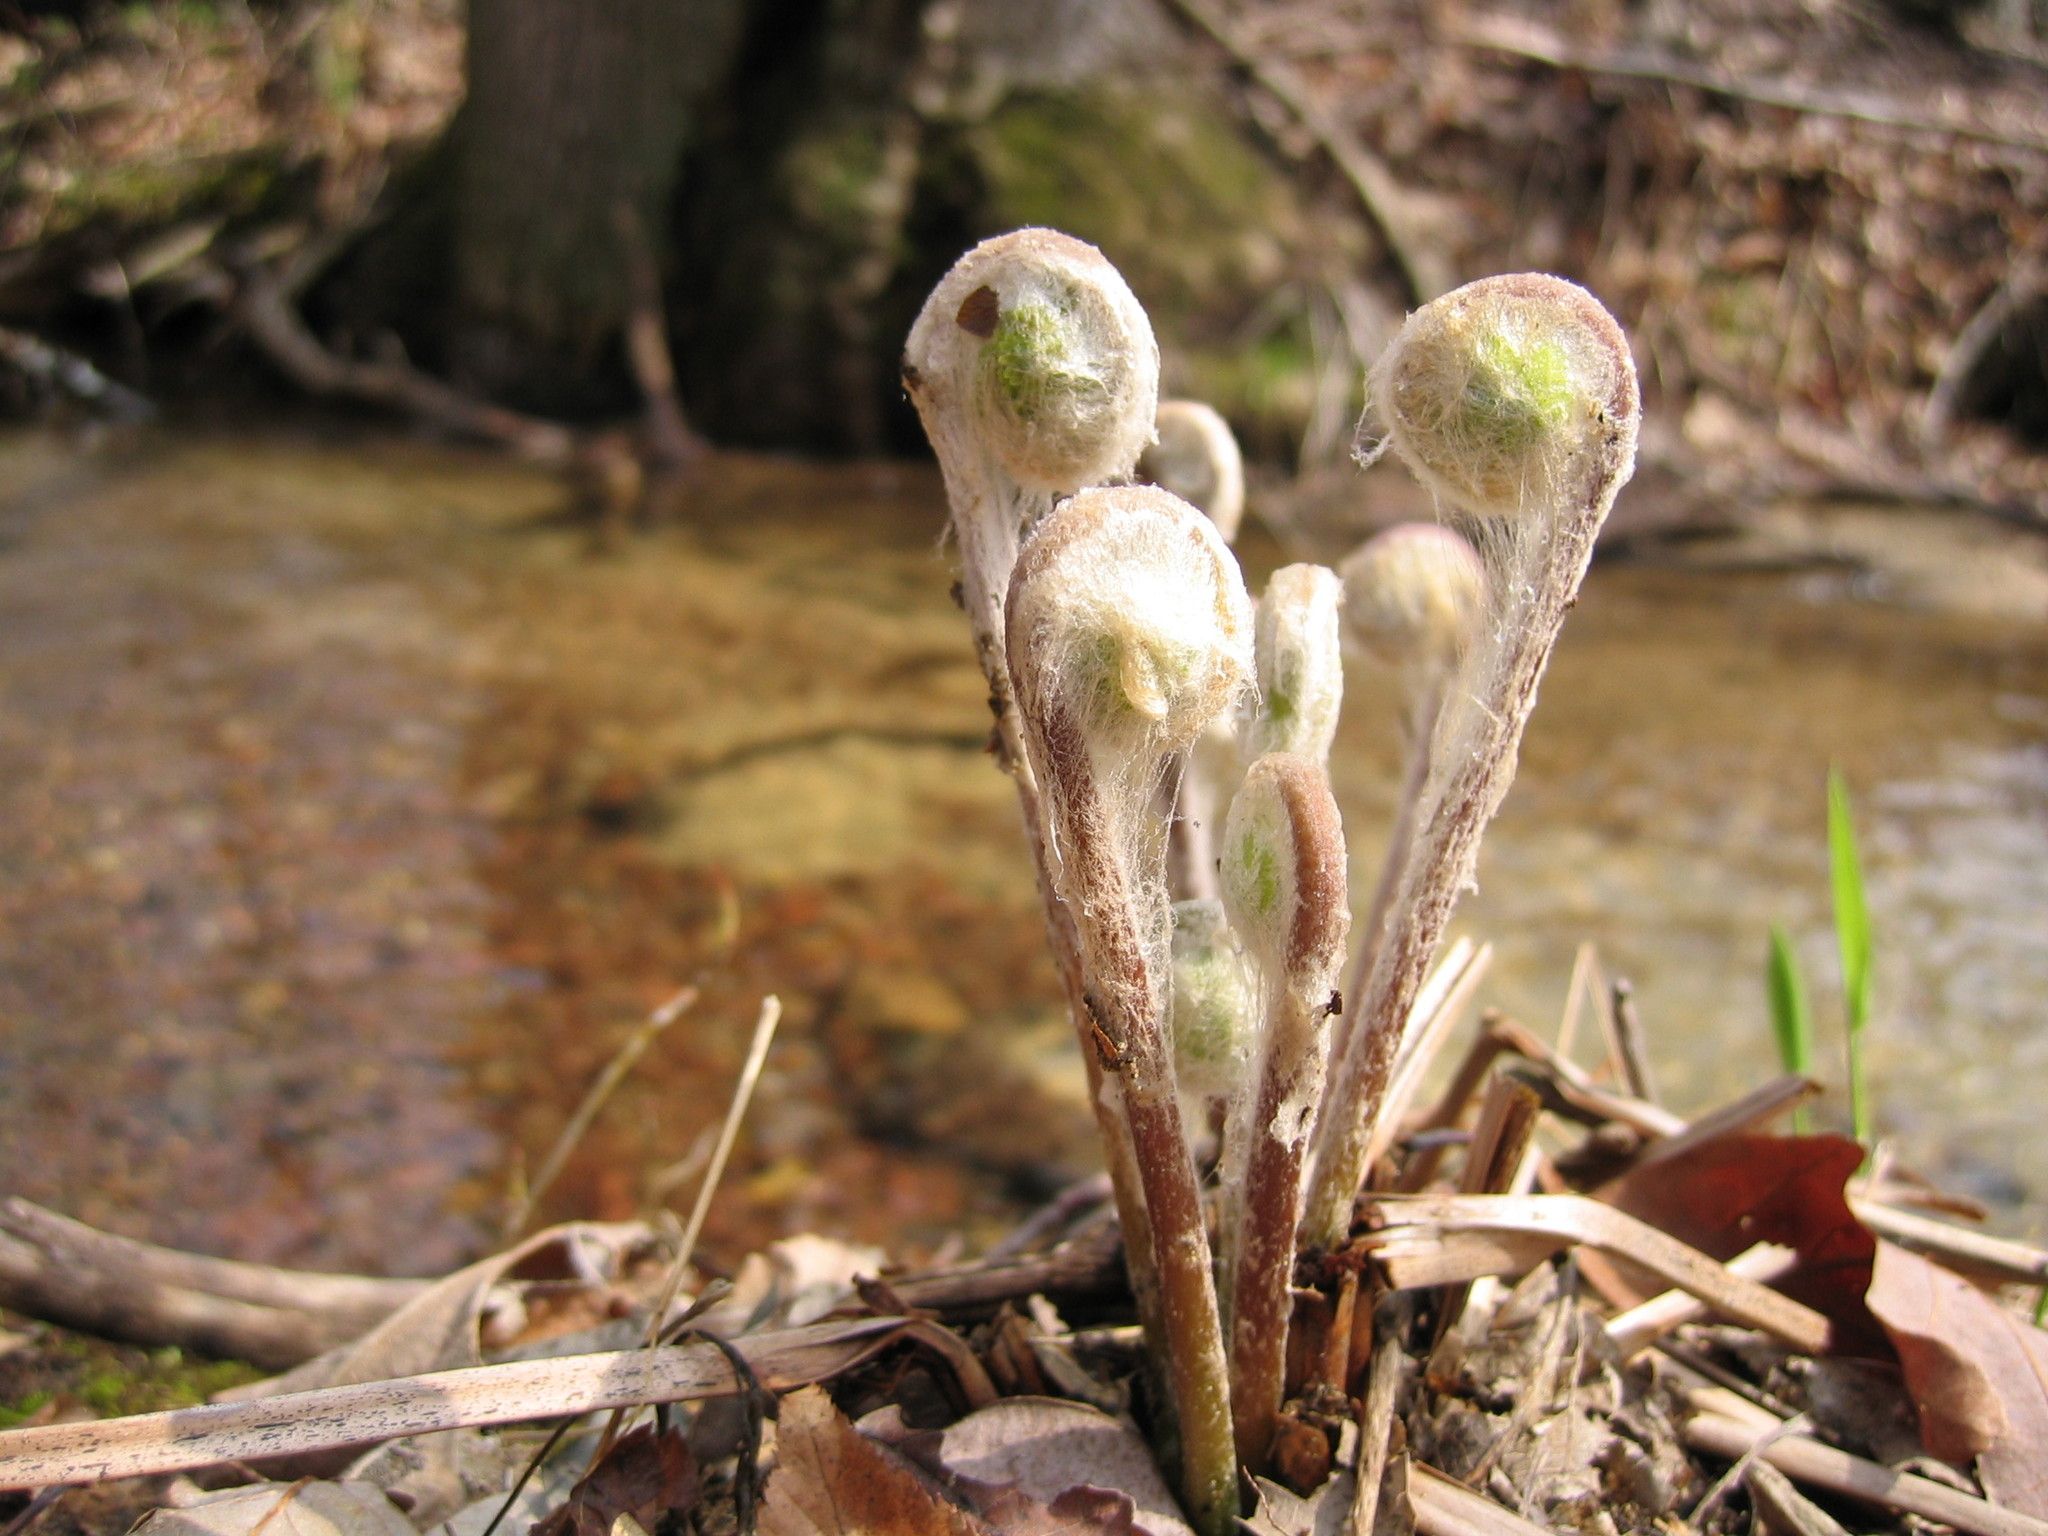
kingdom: Plantae
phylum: Tracheophyta
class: Polypodiopsida
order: Osmundales
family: Osmundaceae
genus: Osmundastrum
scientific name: Osmundastrum cinnamomeum
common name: Cinnamon fern
